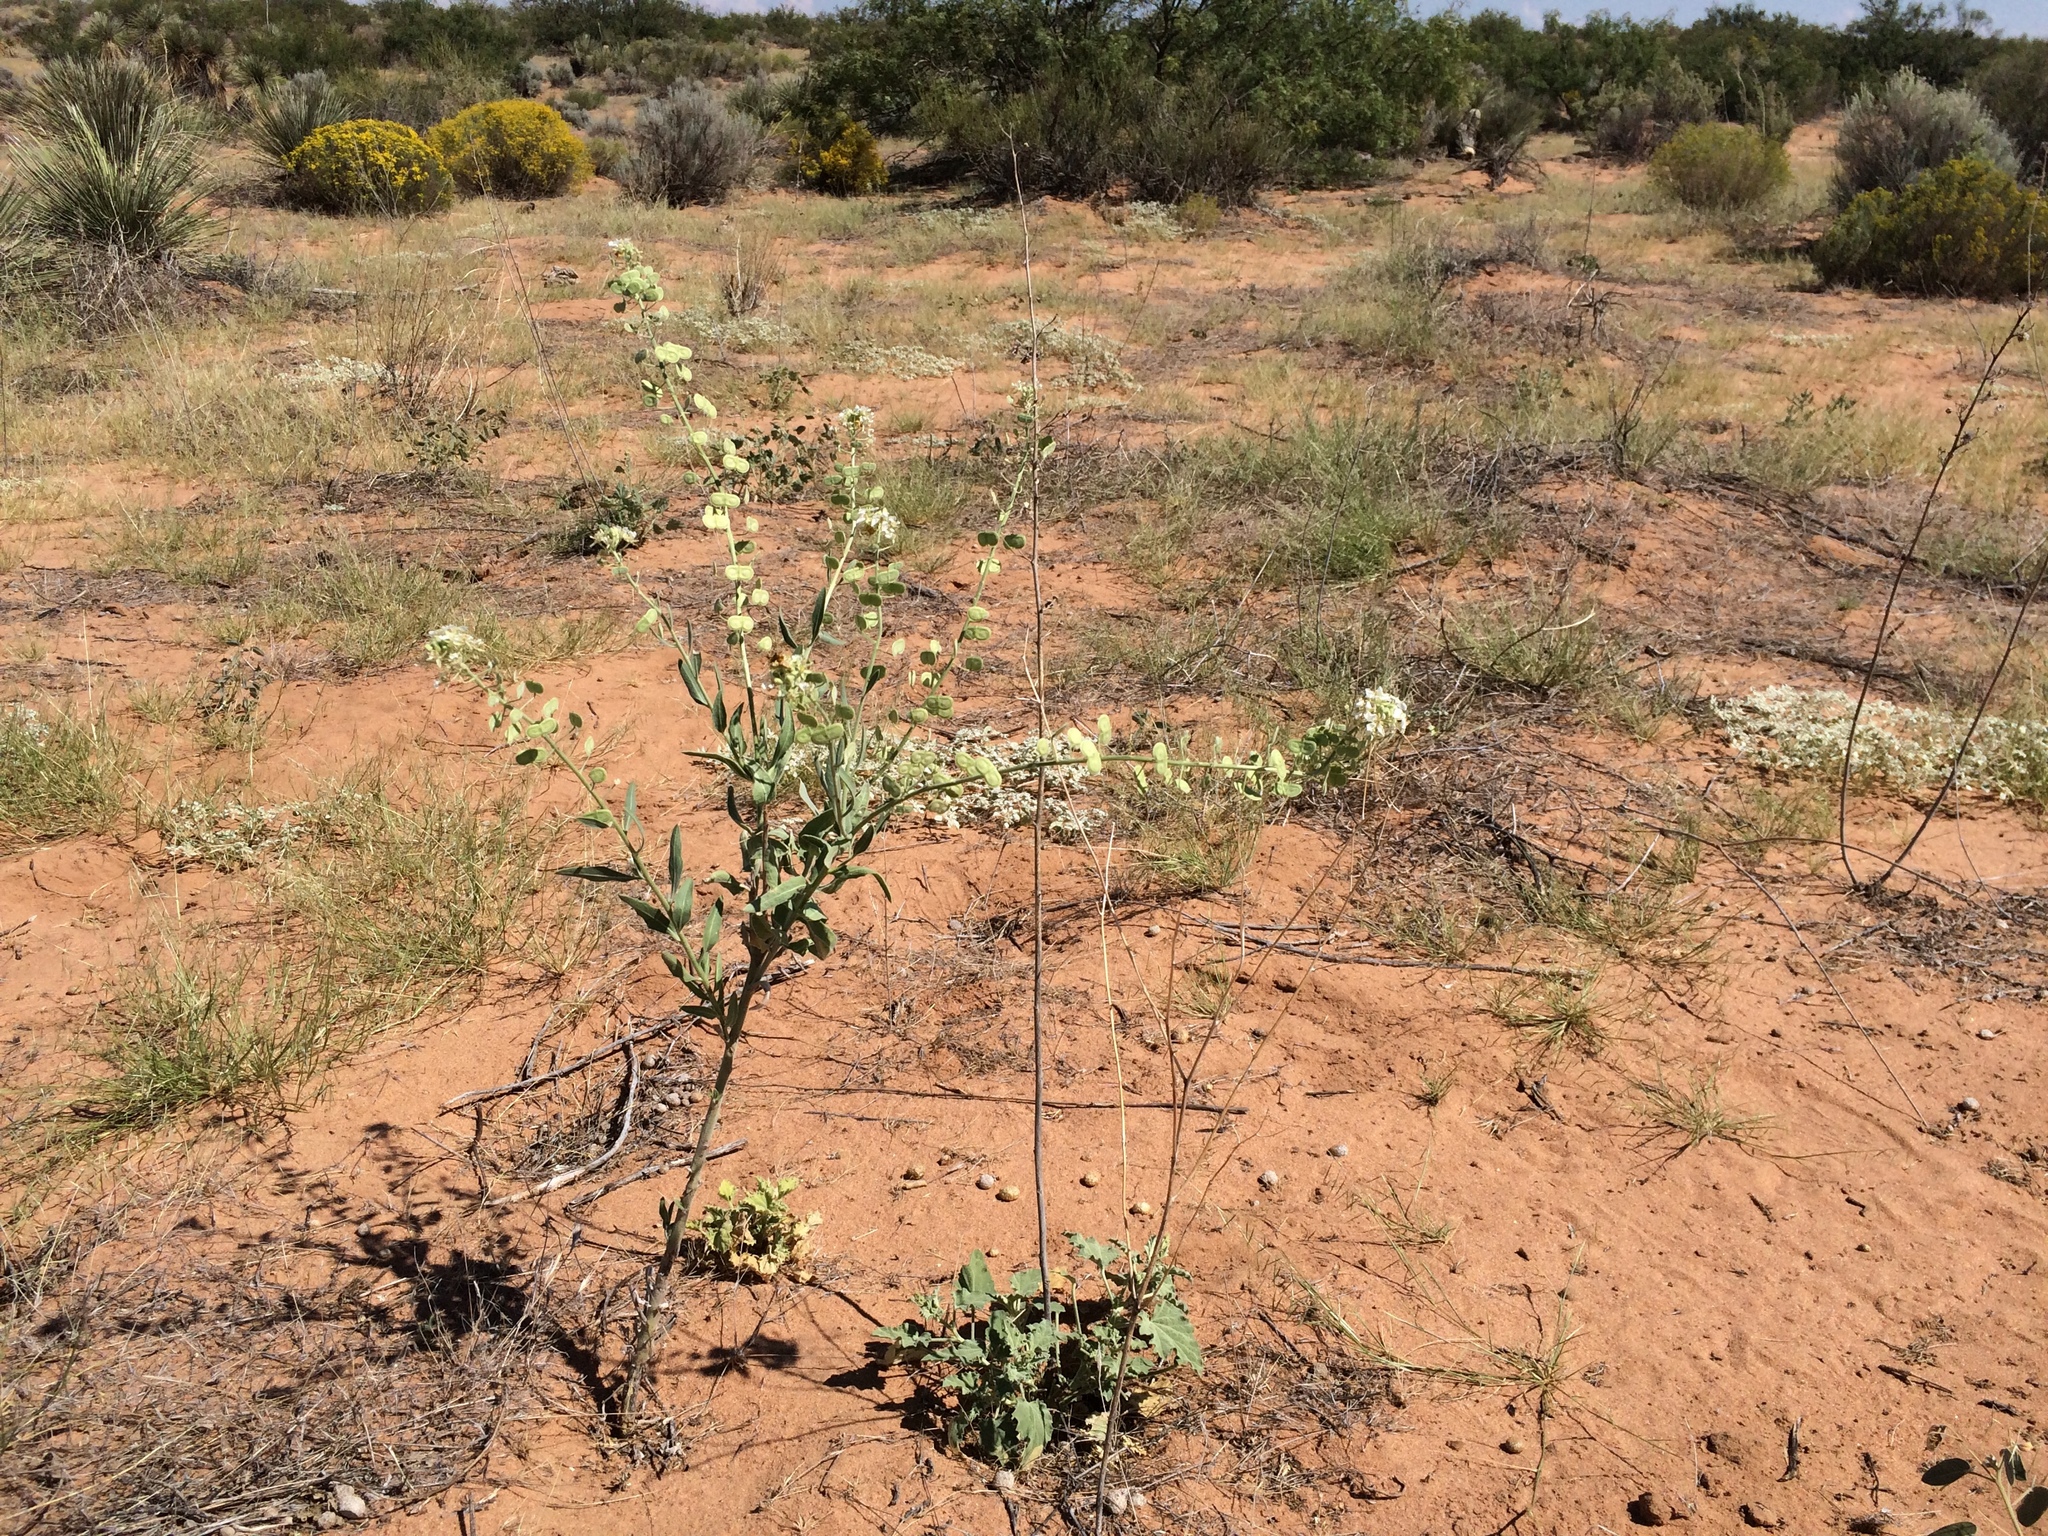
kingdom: Plantae
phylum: Tracheophyta
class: Magnoliopsida
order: Brassicales
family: Brassicaceae
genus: Dimorphocarpa
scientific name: Dimorphocarpa wislizenii
